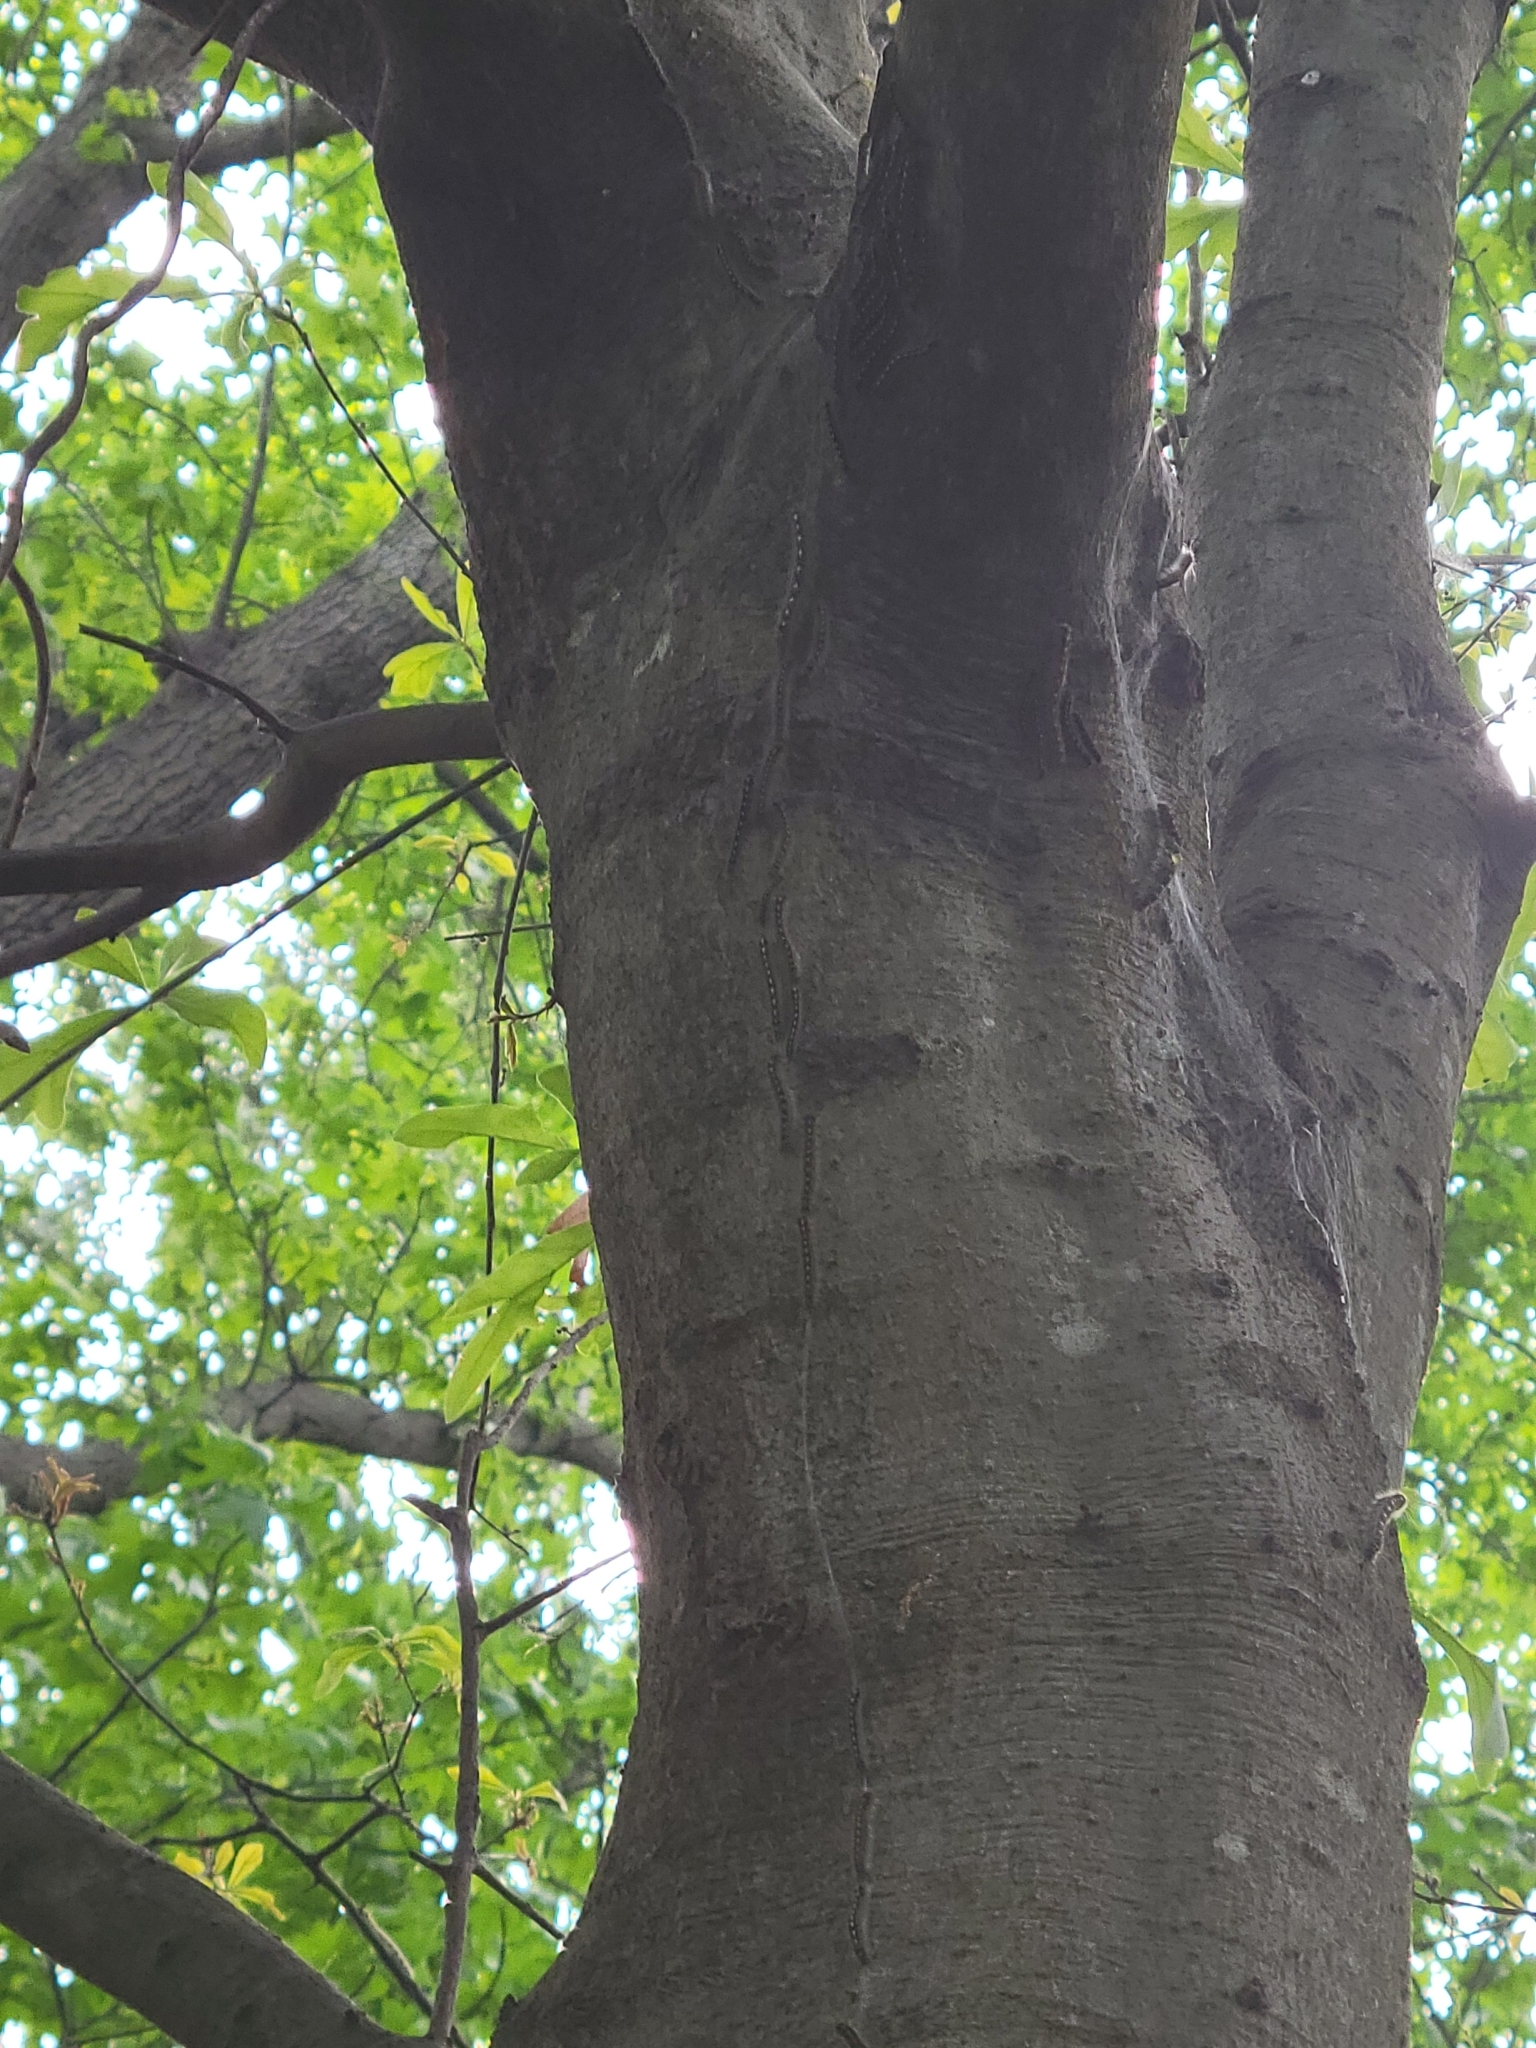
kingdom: Animalia
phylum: Arthropoda
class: Insecta
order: Lepidoptera
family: Lasiocampidae
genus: Malacosoma
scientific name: Malacosoma disstria
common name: Forest tent caterpillar
